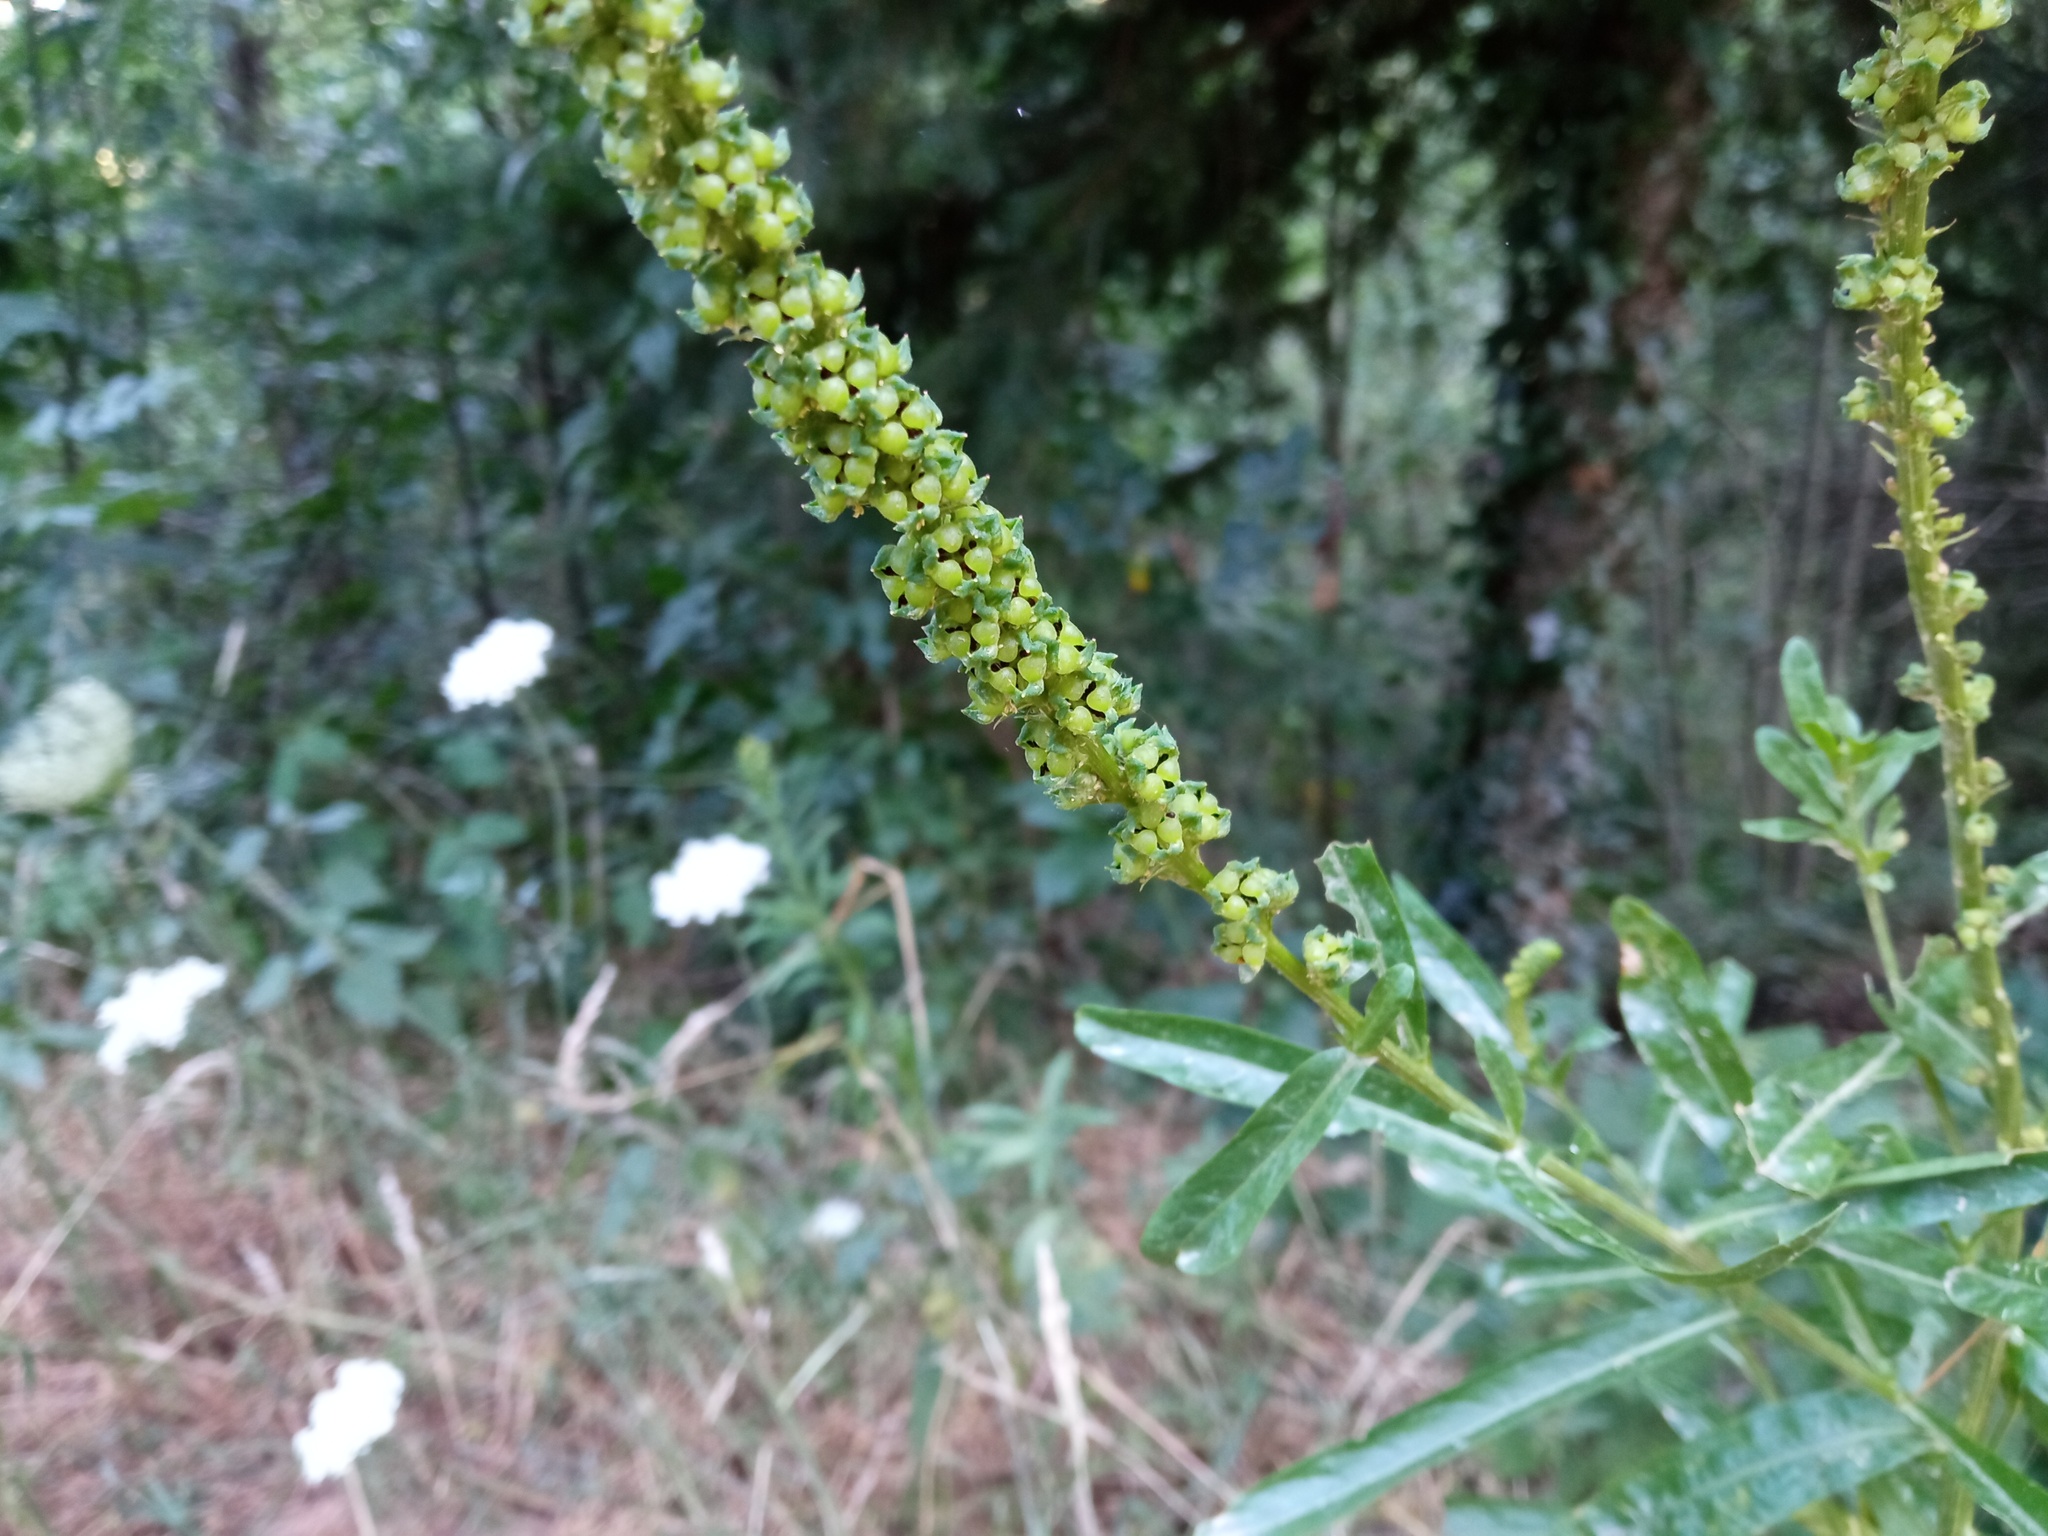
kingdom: Plantae
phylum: Tracheophyta
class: Magnoliopsida
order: Brassicales
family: Resedaceae
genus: Reseda
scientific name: Reseda luteola
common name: Weld
